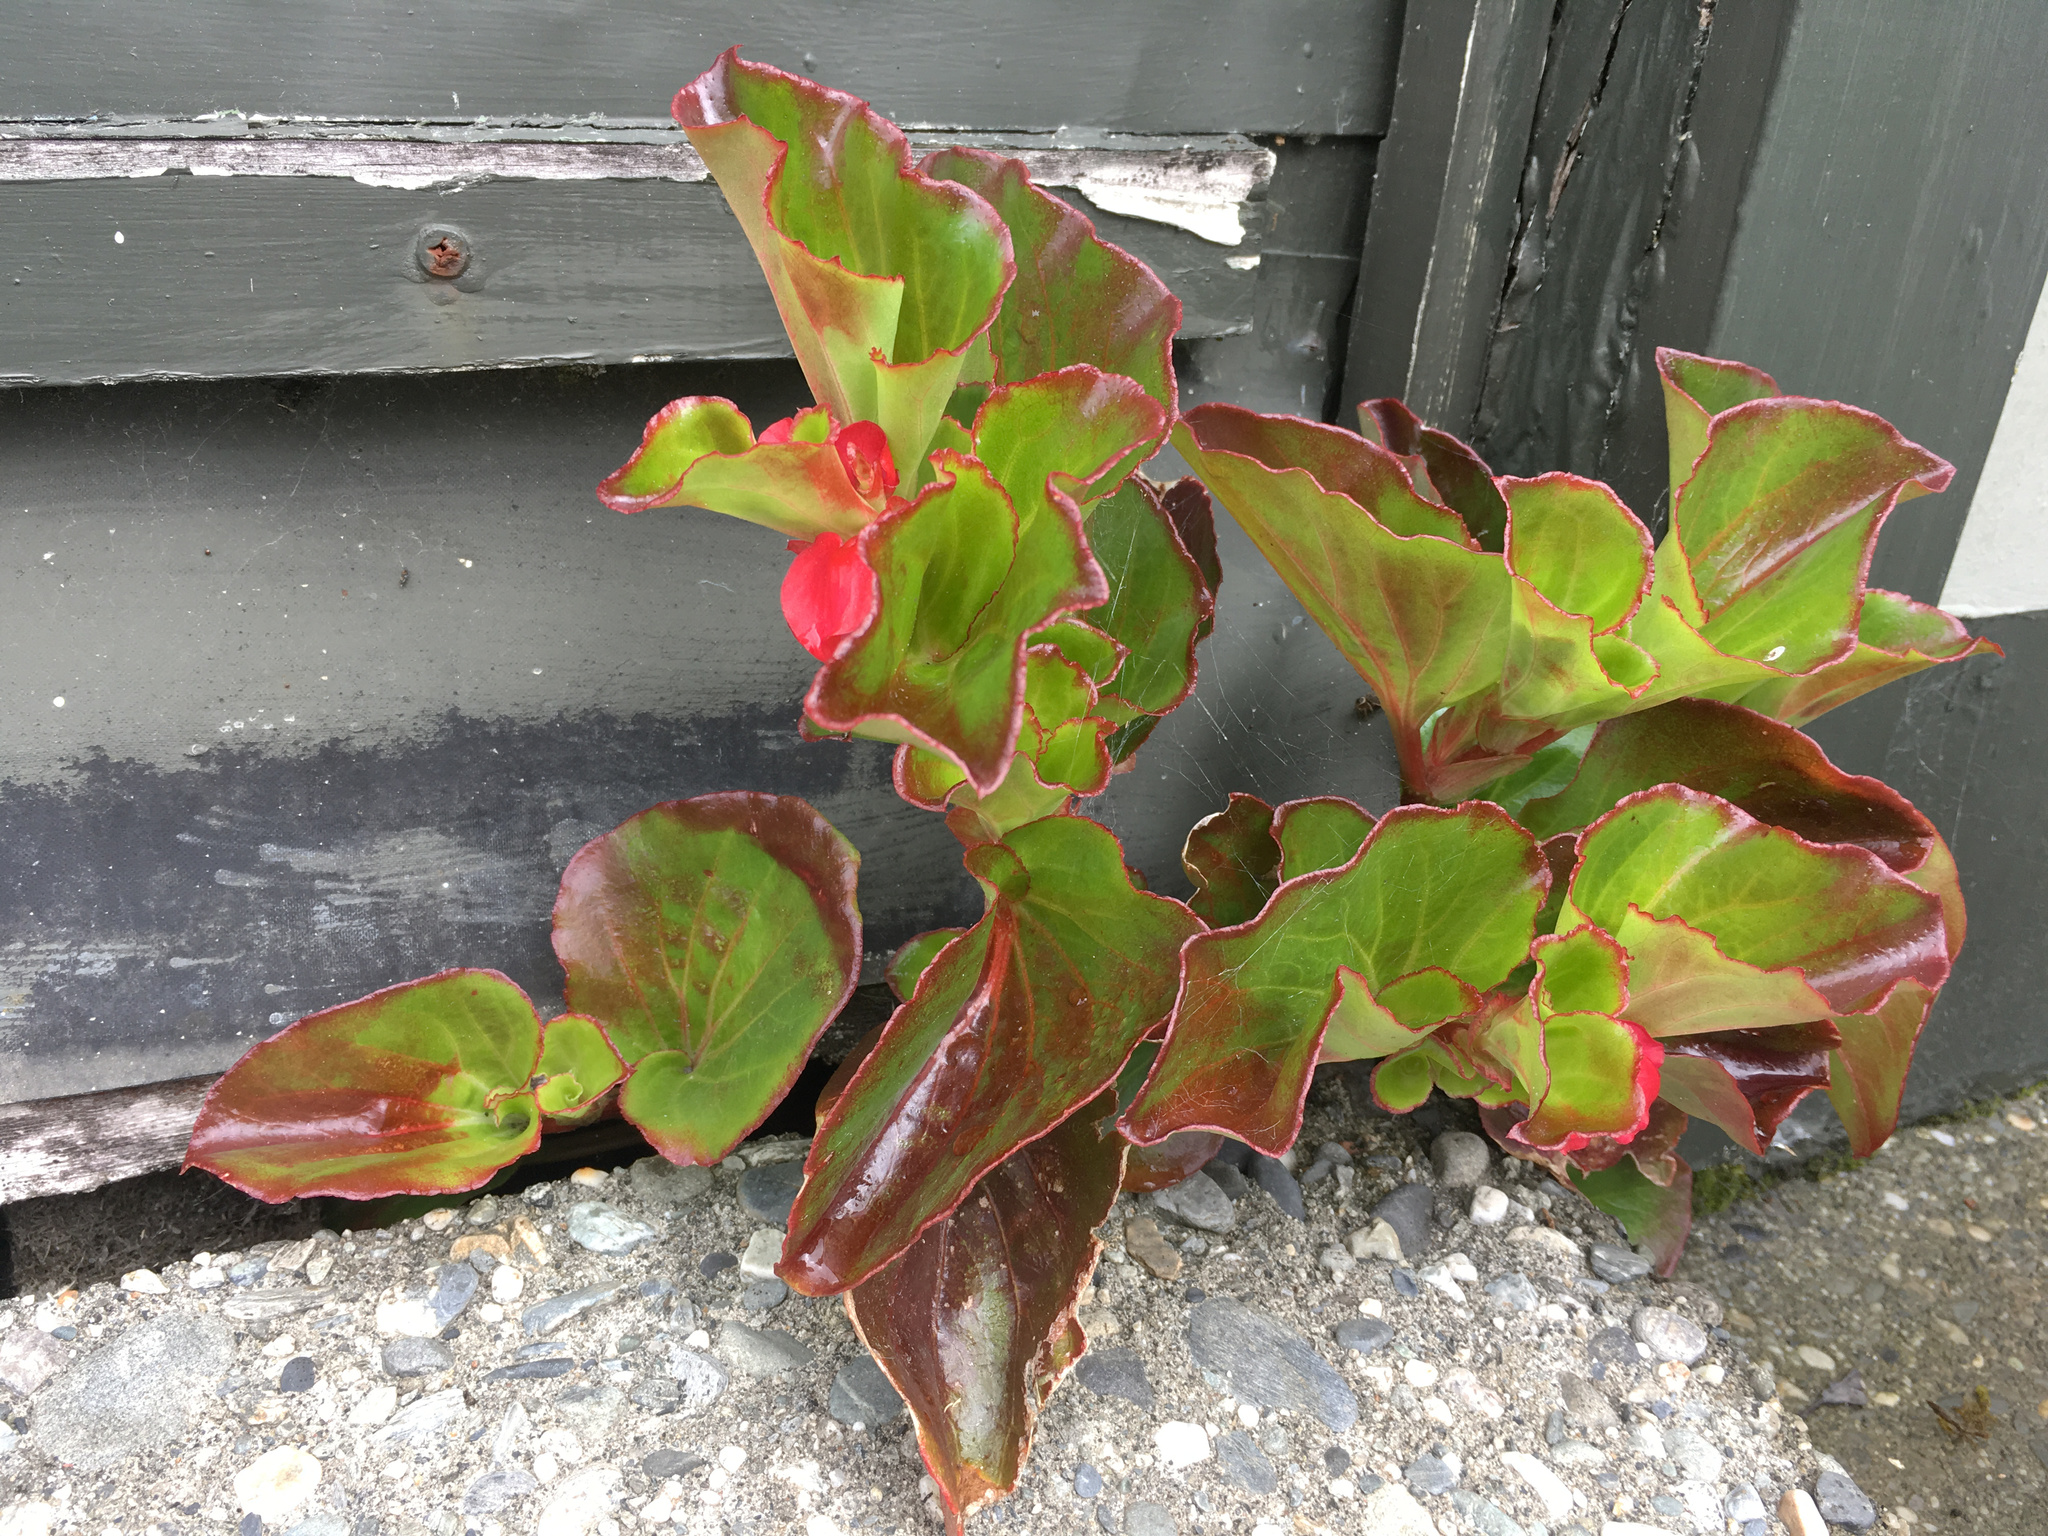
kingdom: Plantae
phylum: Tracheophyta
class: Magnoliopsida
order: Cucurbitales
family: Begoniaceae
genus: Begonia
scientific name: Begonia semperflorens-cultorum
